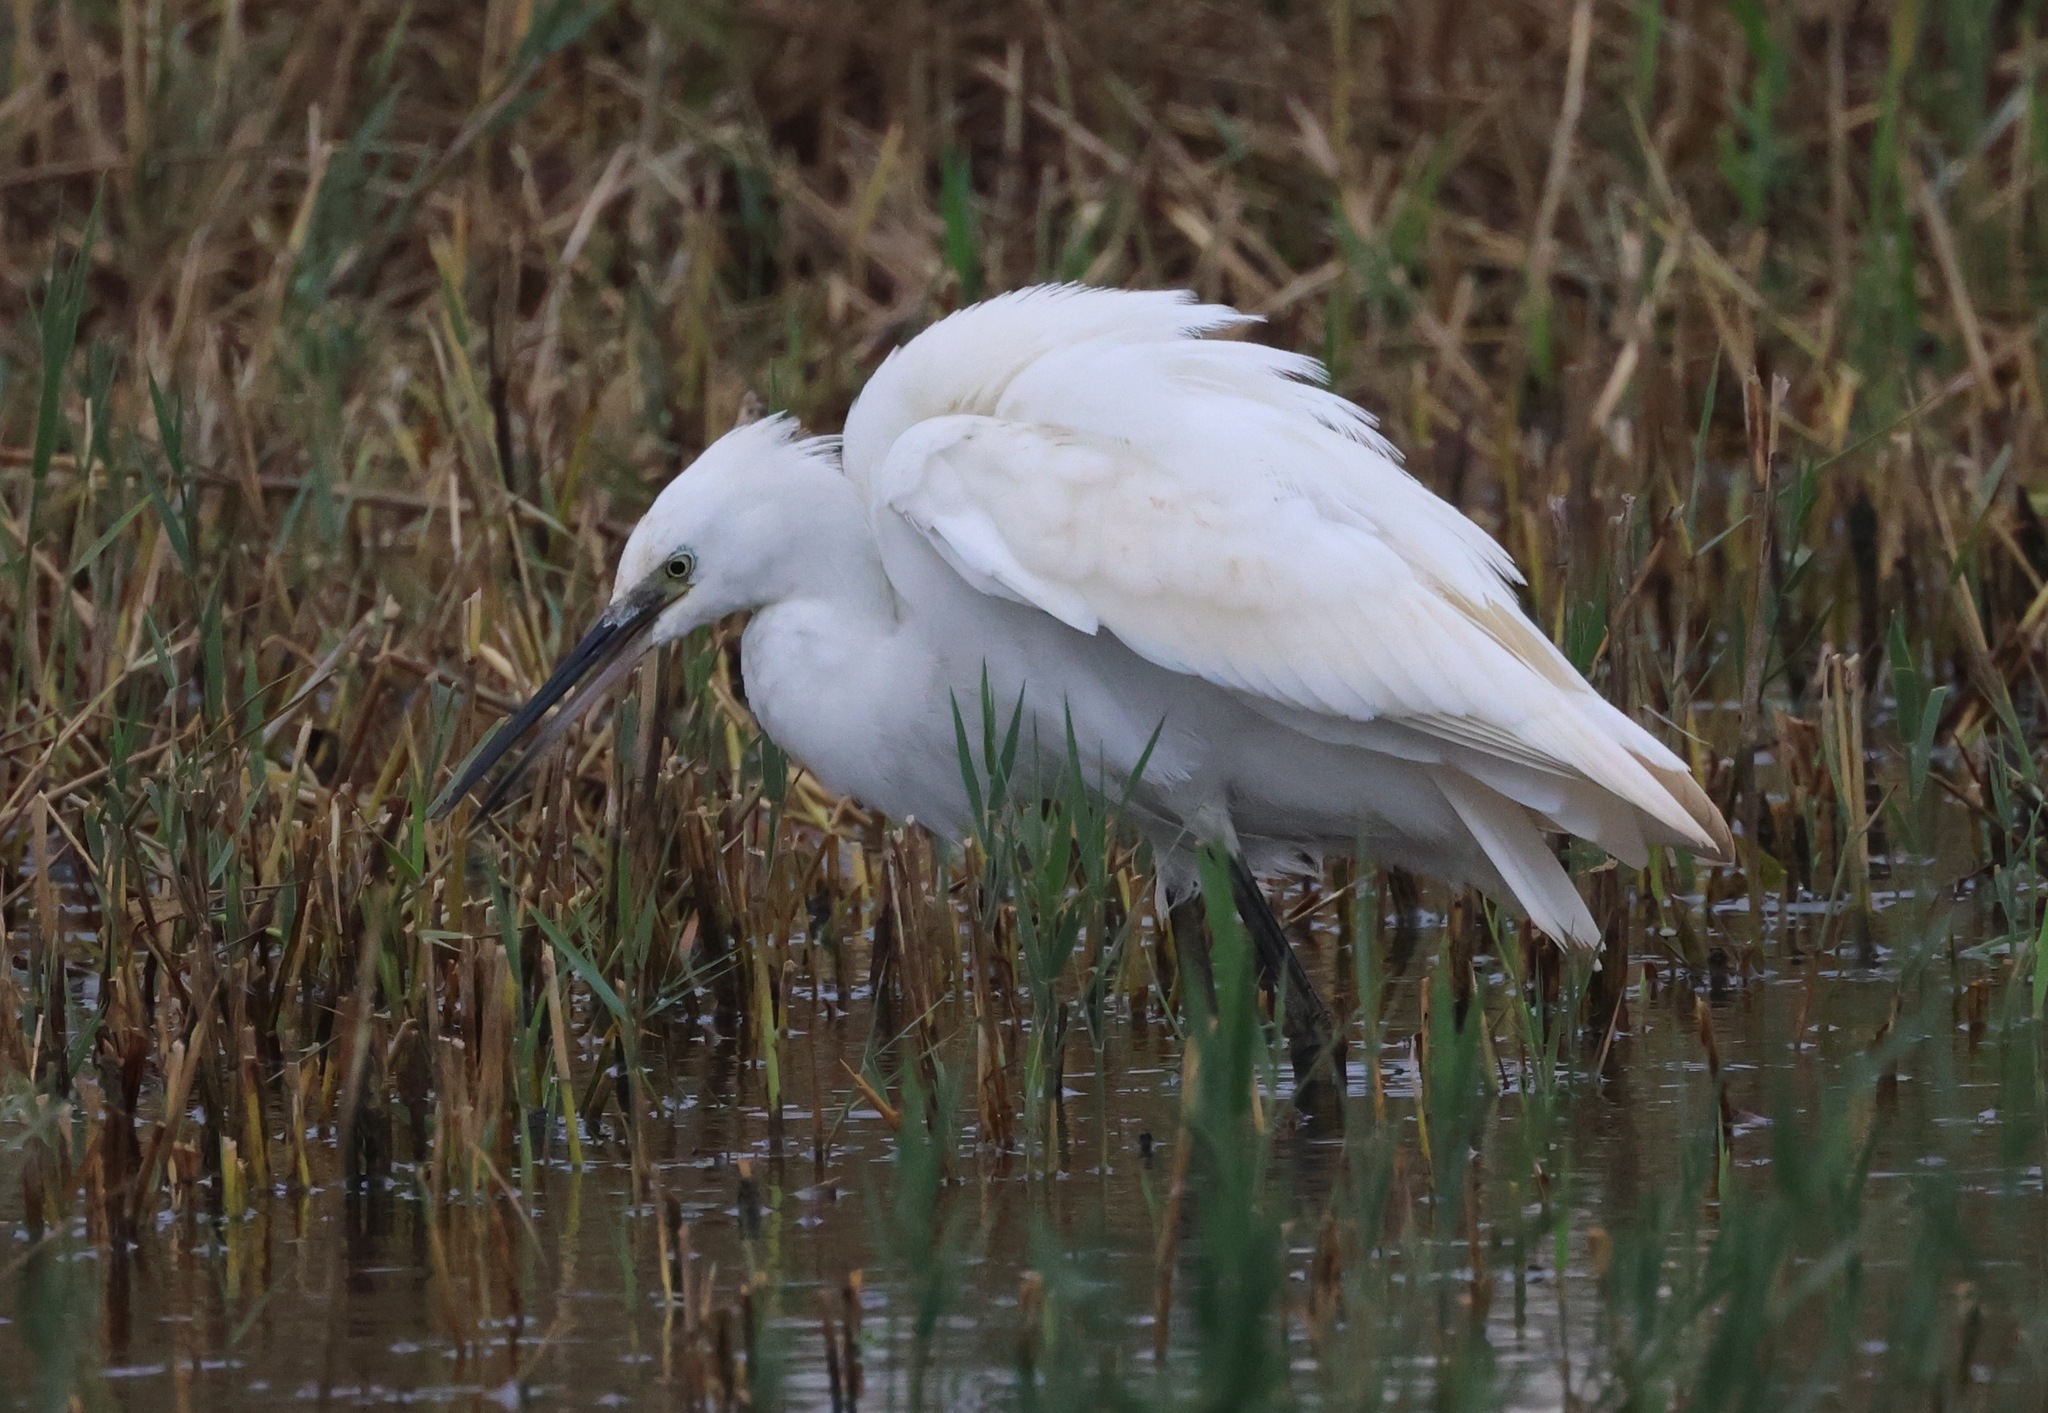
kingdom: Animalia
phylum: Chordata
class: Aves
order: Pelecaniformes
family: Ardeidae
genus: Egretta
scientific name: Egretta garzetta
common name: Little egret
